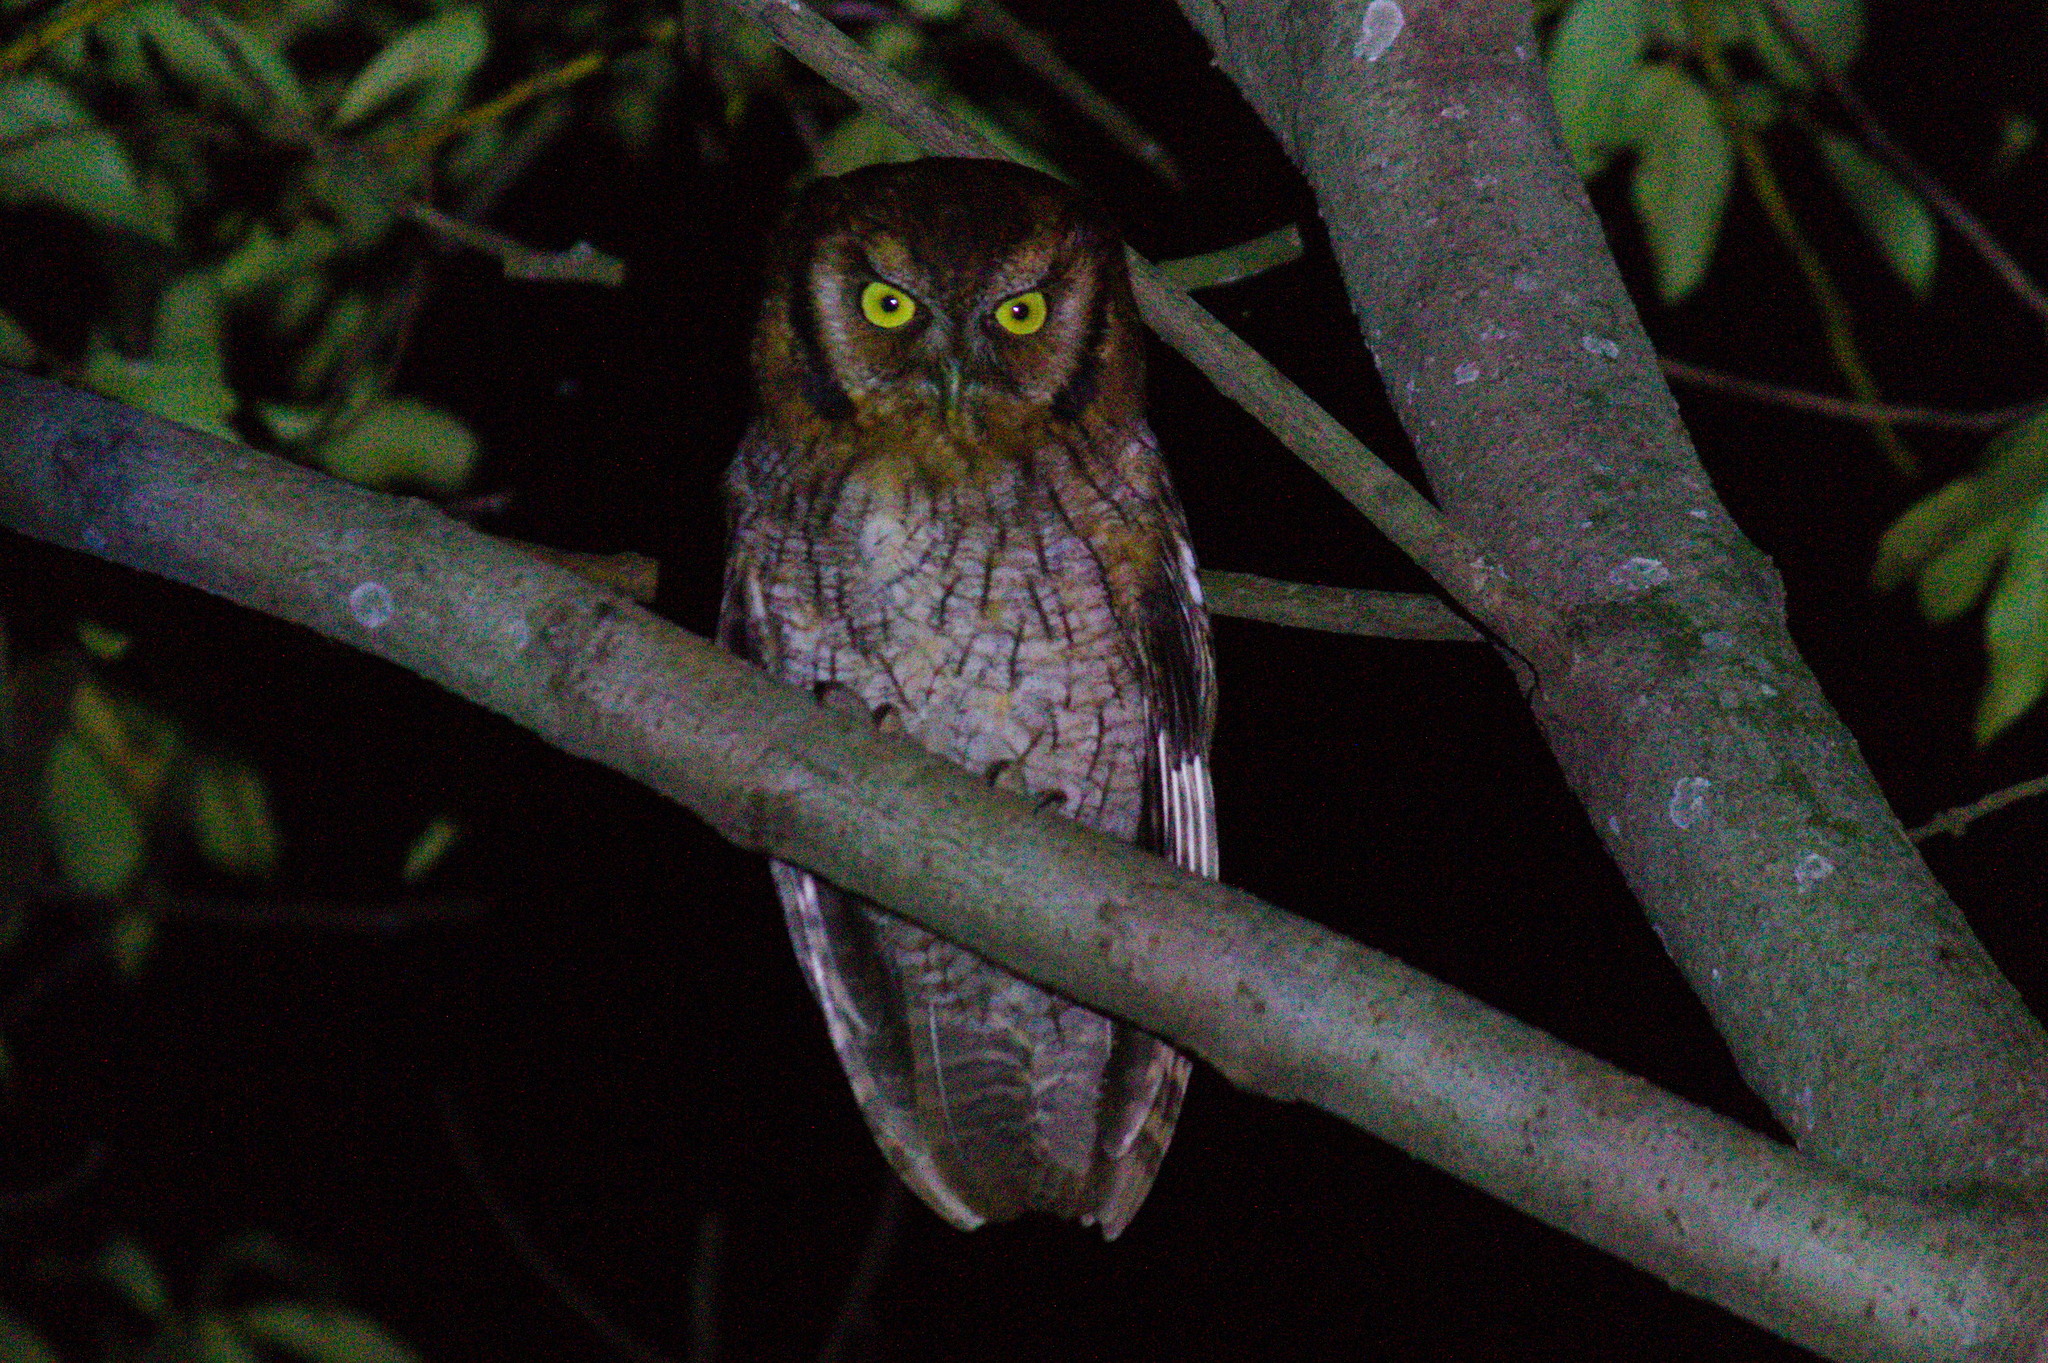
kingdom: Animalia
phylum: Chordata
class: Aves
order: Strigiformes
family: Strigidae
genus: Megascops
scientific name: Megascops choliba
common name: Tropical screech-owl
